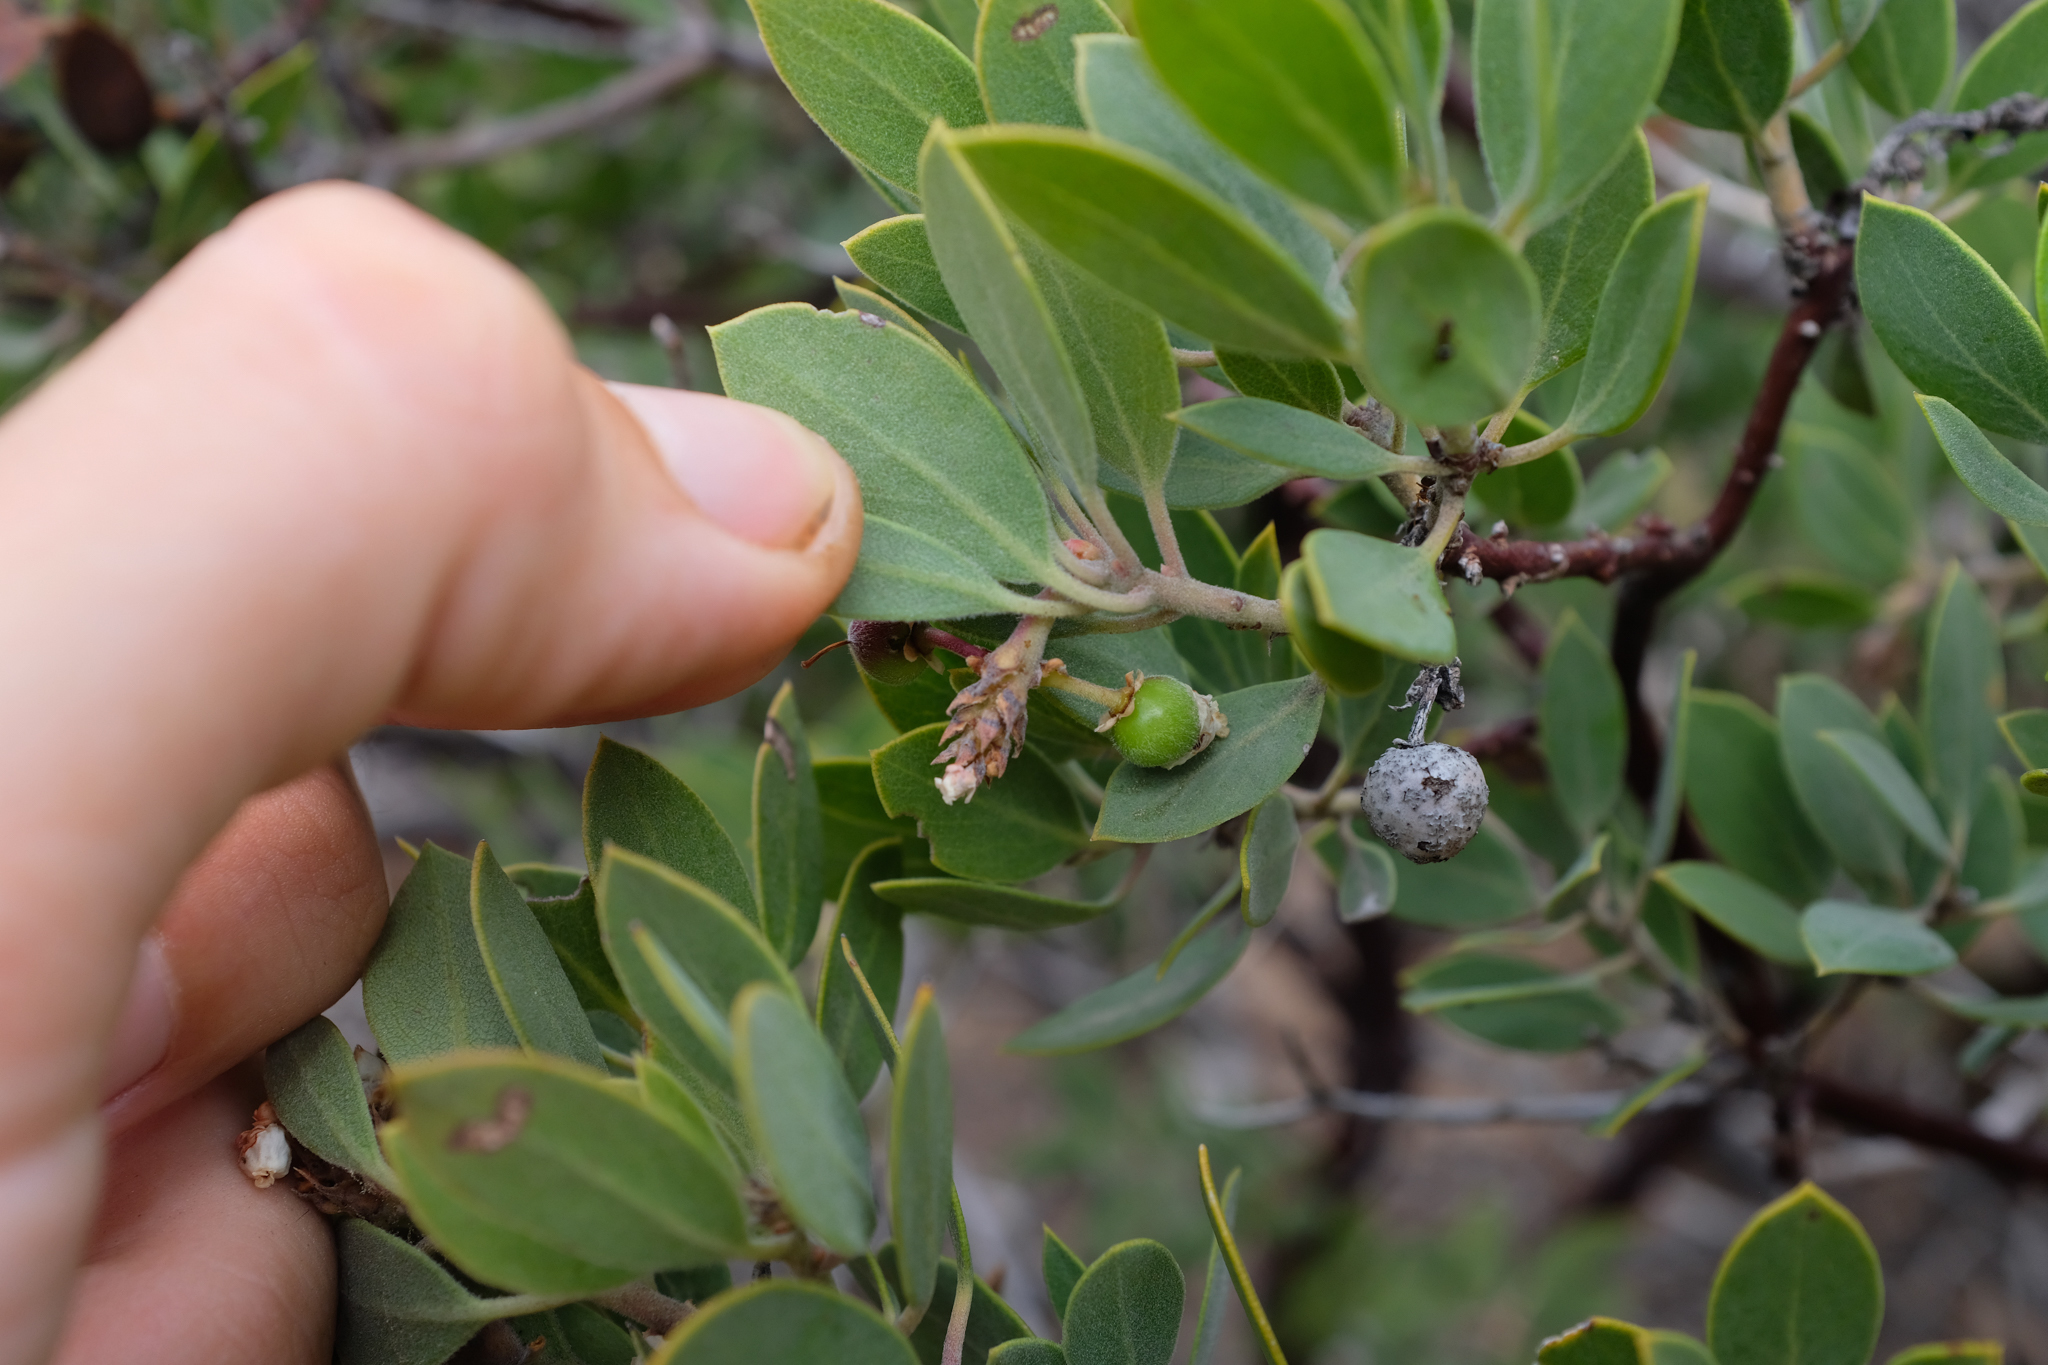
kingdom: Plantae
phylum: Tracheophyta
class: Magnoliopsida
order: Ericales
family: Ericaceae
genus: Arctostaphylos
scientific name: Arctostaphylos pungens
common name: Mexican manzanita
